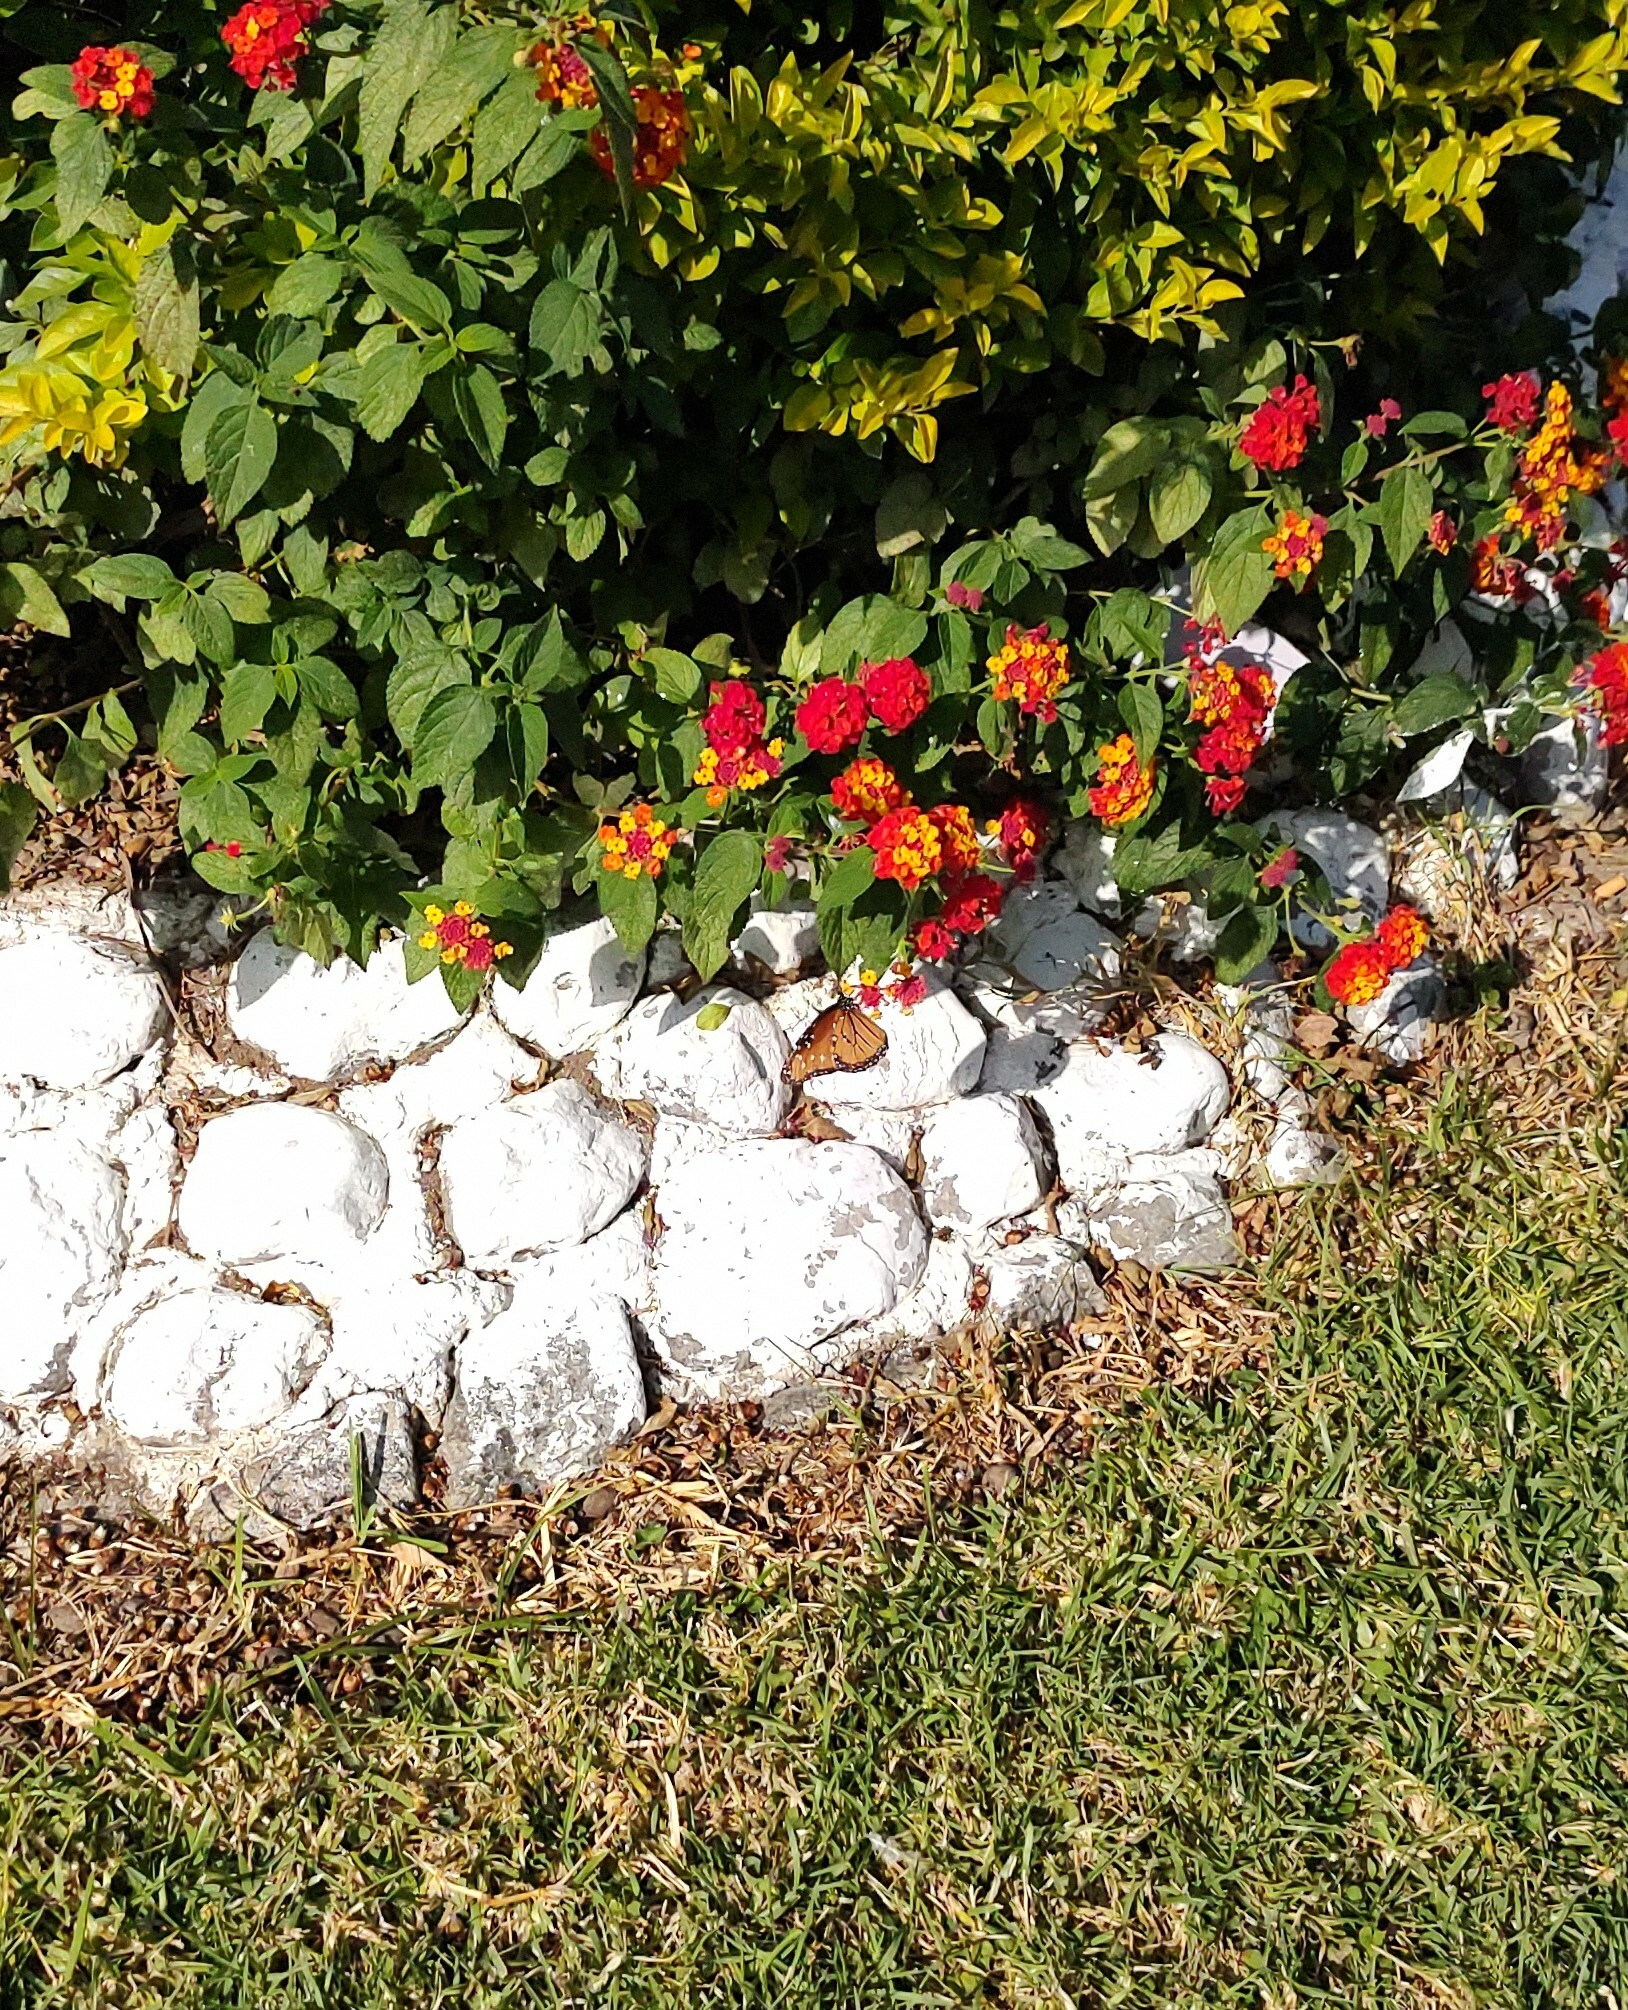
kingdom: Animalia
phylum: Arthropoda
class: Insecta
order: Lepidoptera
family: Nymphalidae
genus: Danaus
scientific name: Danaus gilippus
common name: Queen
